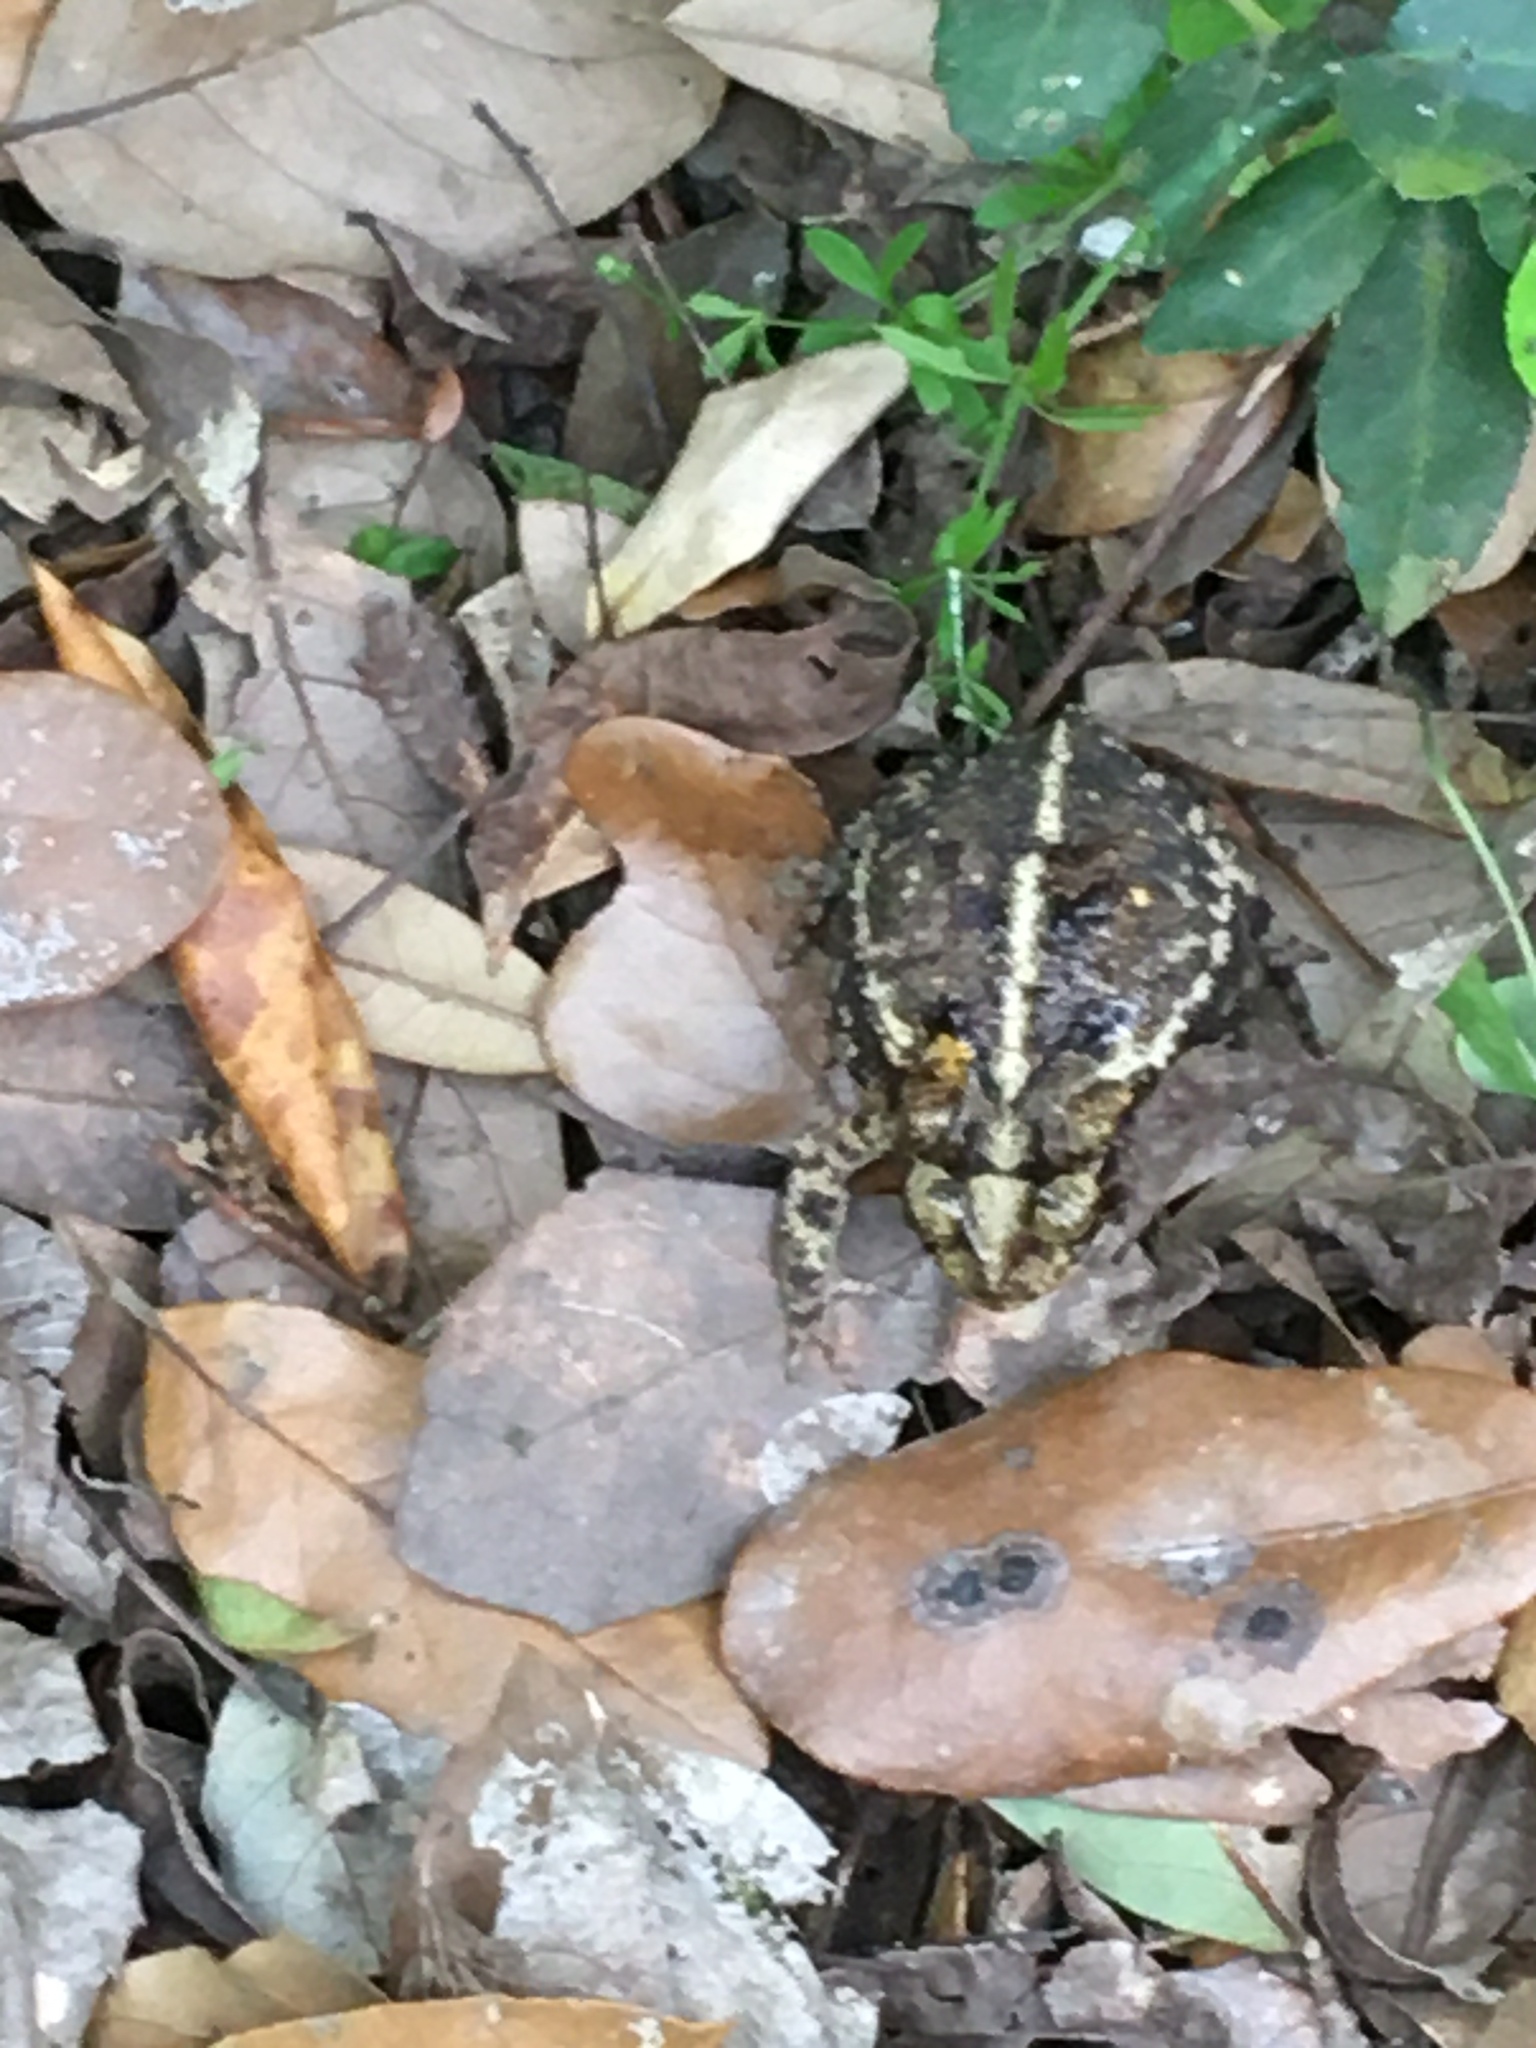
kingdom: Animalia
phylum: Chordata
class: Amphibia
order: Anura
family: Bufonidae
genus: Incilius
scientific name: Incilius nebulifer
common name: Gulf coast toad
